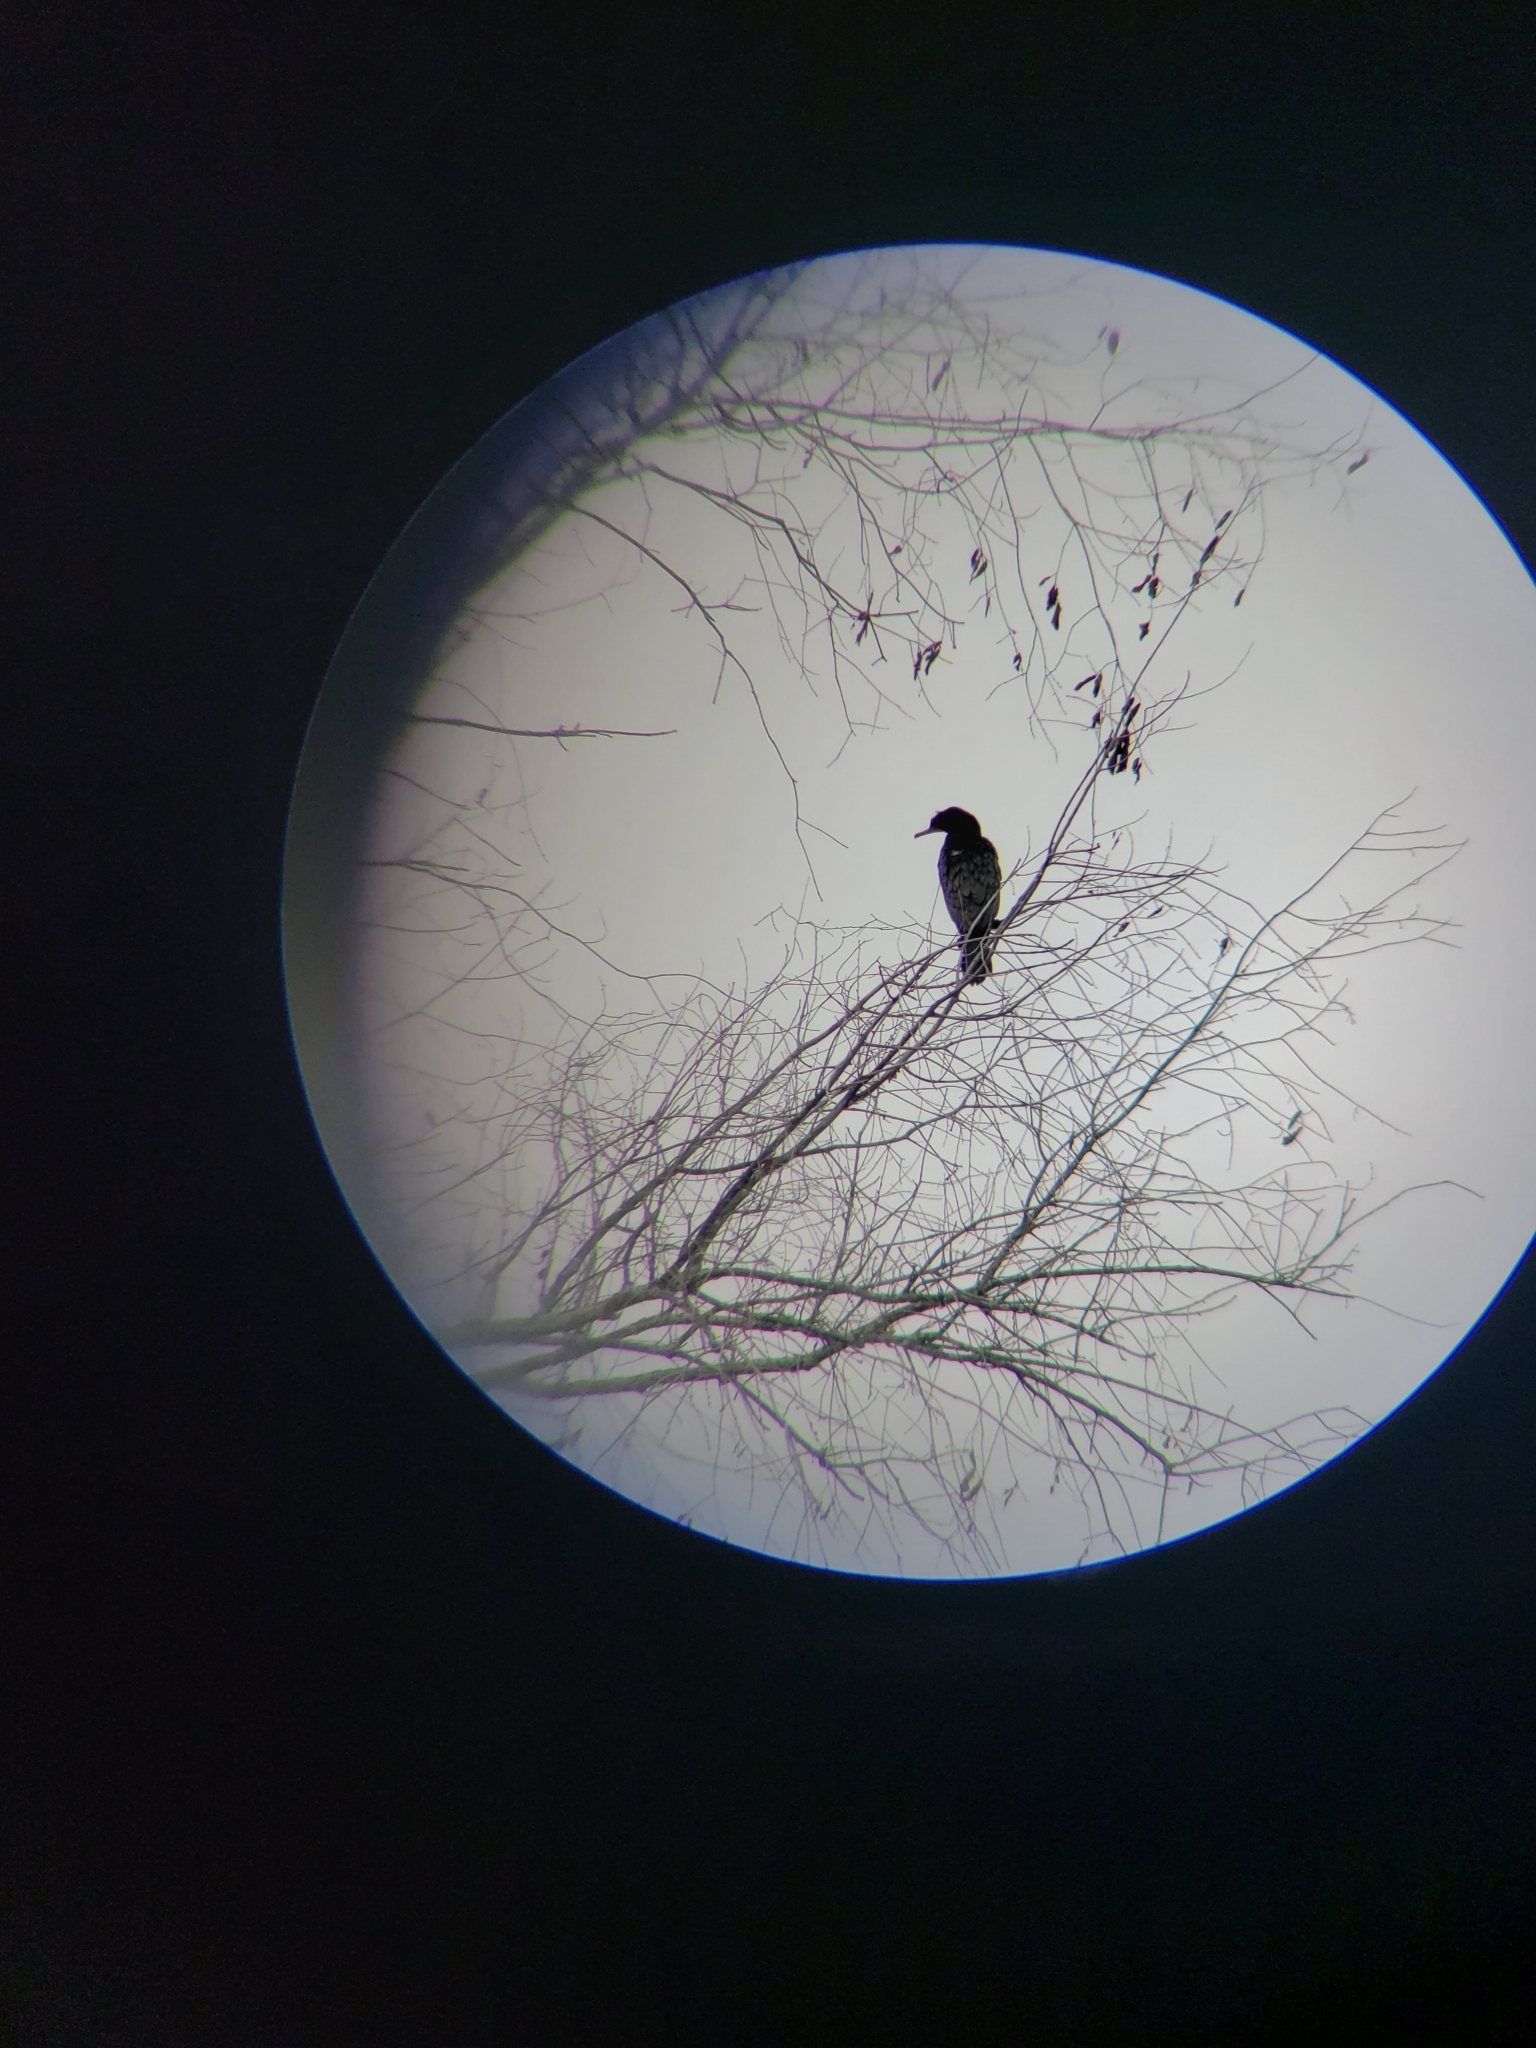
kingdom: Animalia
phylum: Chordata
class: Aves
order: Suliformes
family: Phalacrocoracidae
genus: Phalacrocorax
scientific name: Phalacrocorax auritus
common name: Double-crested cormorant
